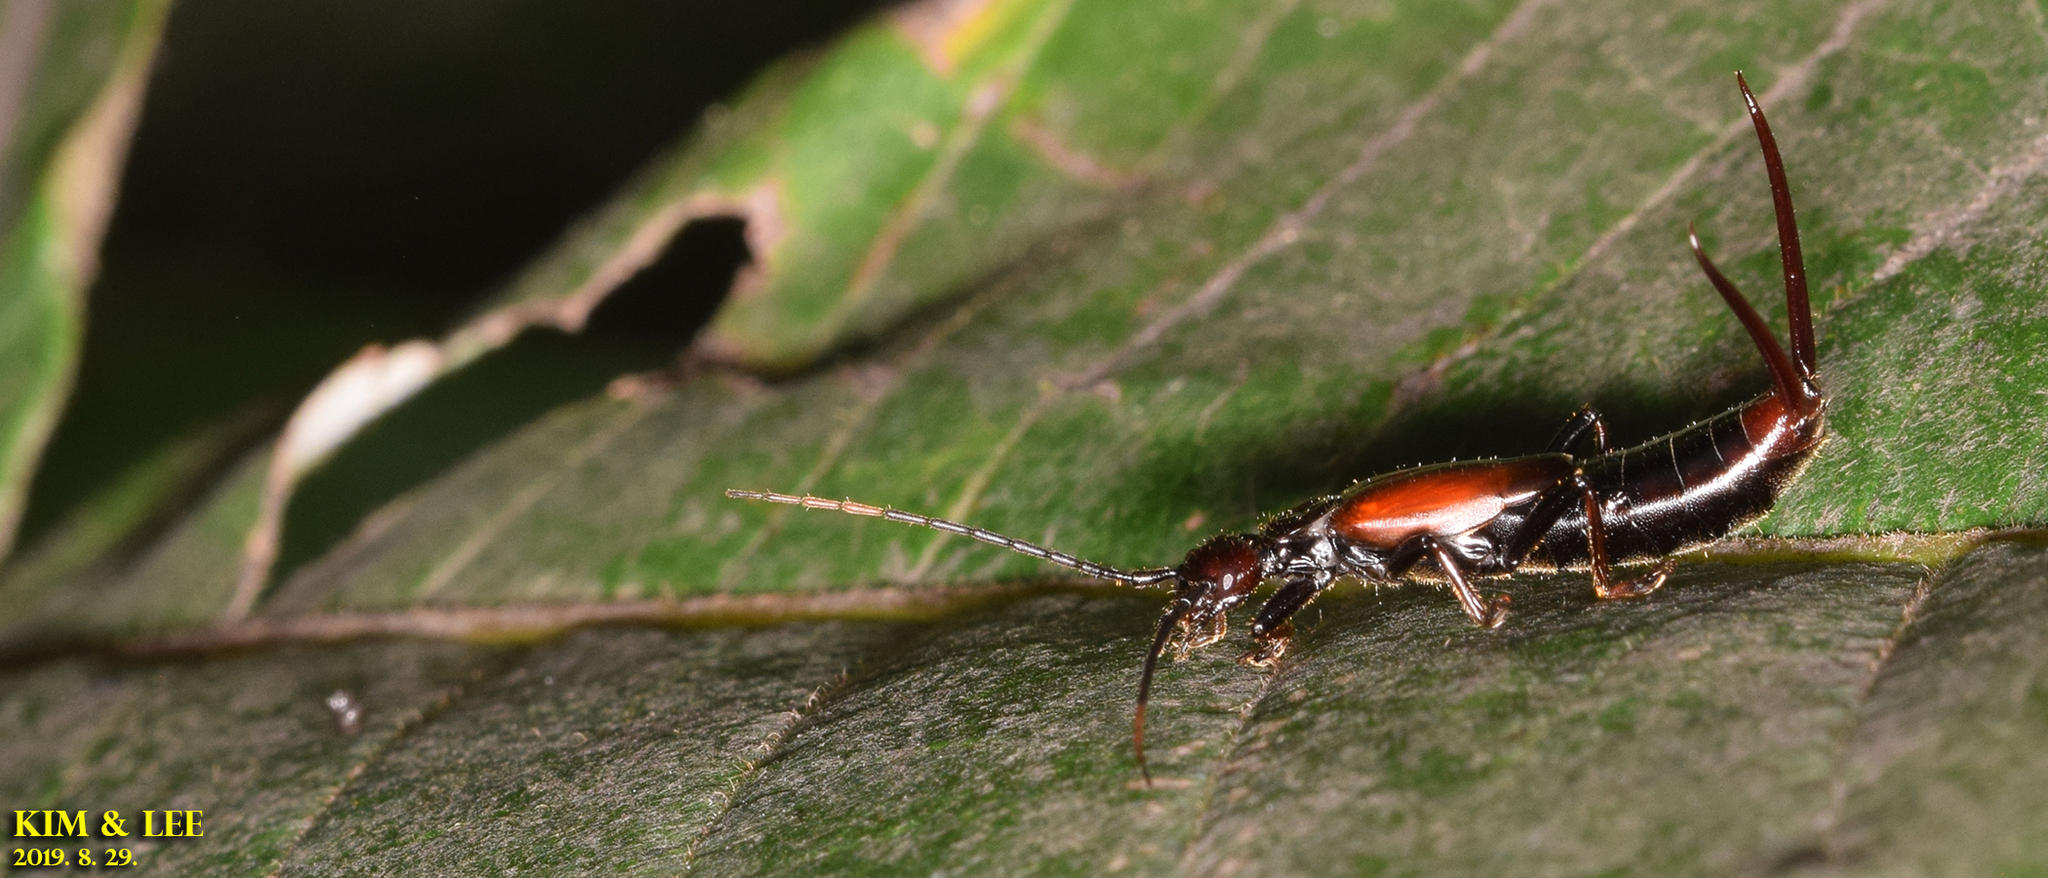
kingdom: Animalia
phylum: Arthropoda
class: Insecta
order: Dermaptera
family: Forficulidae
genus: Timomenus
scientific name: Timomenus komarovi
